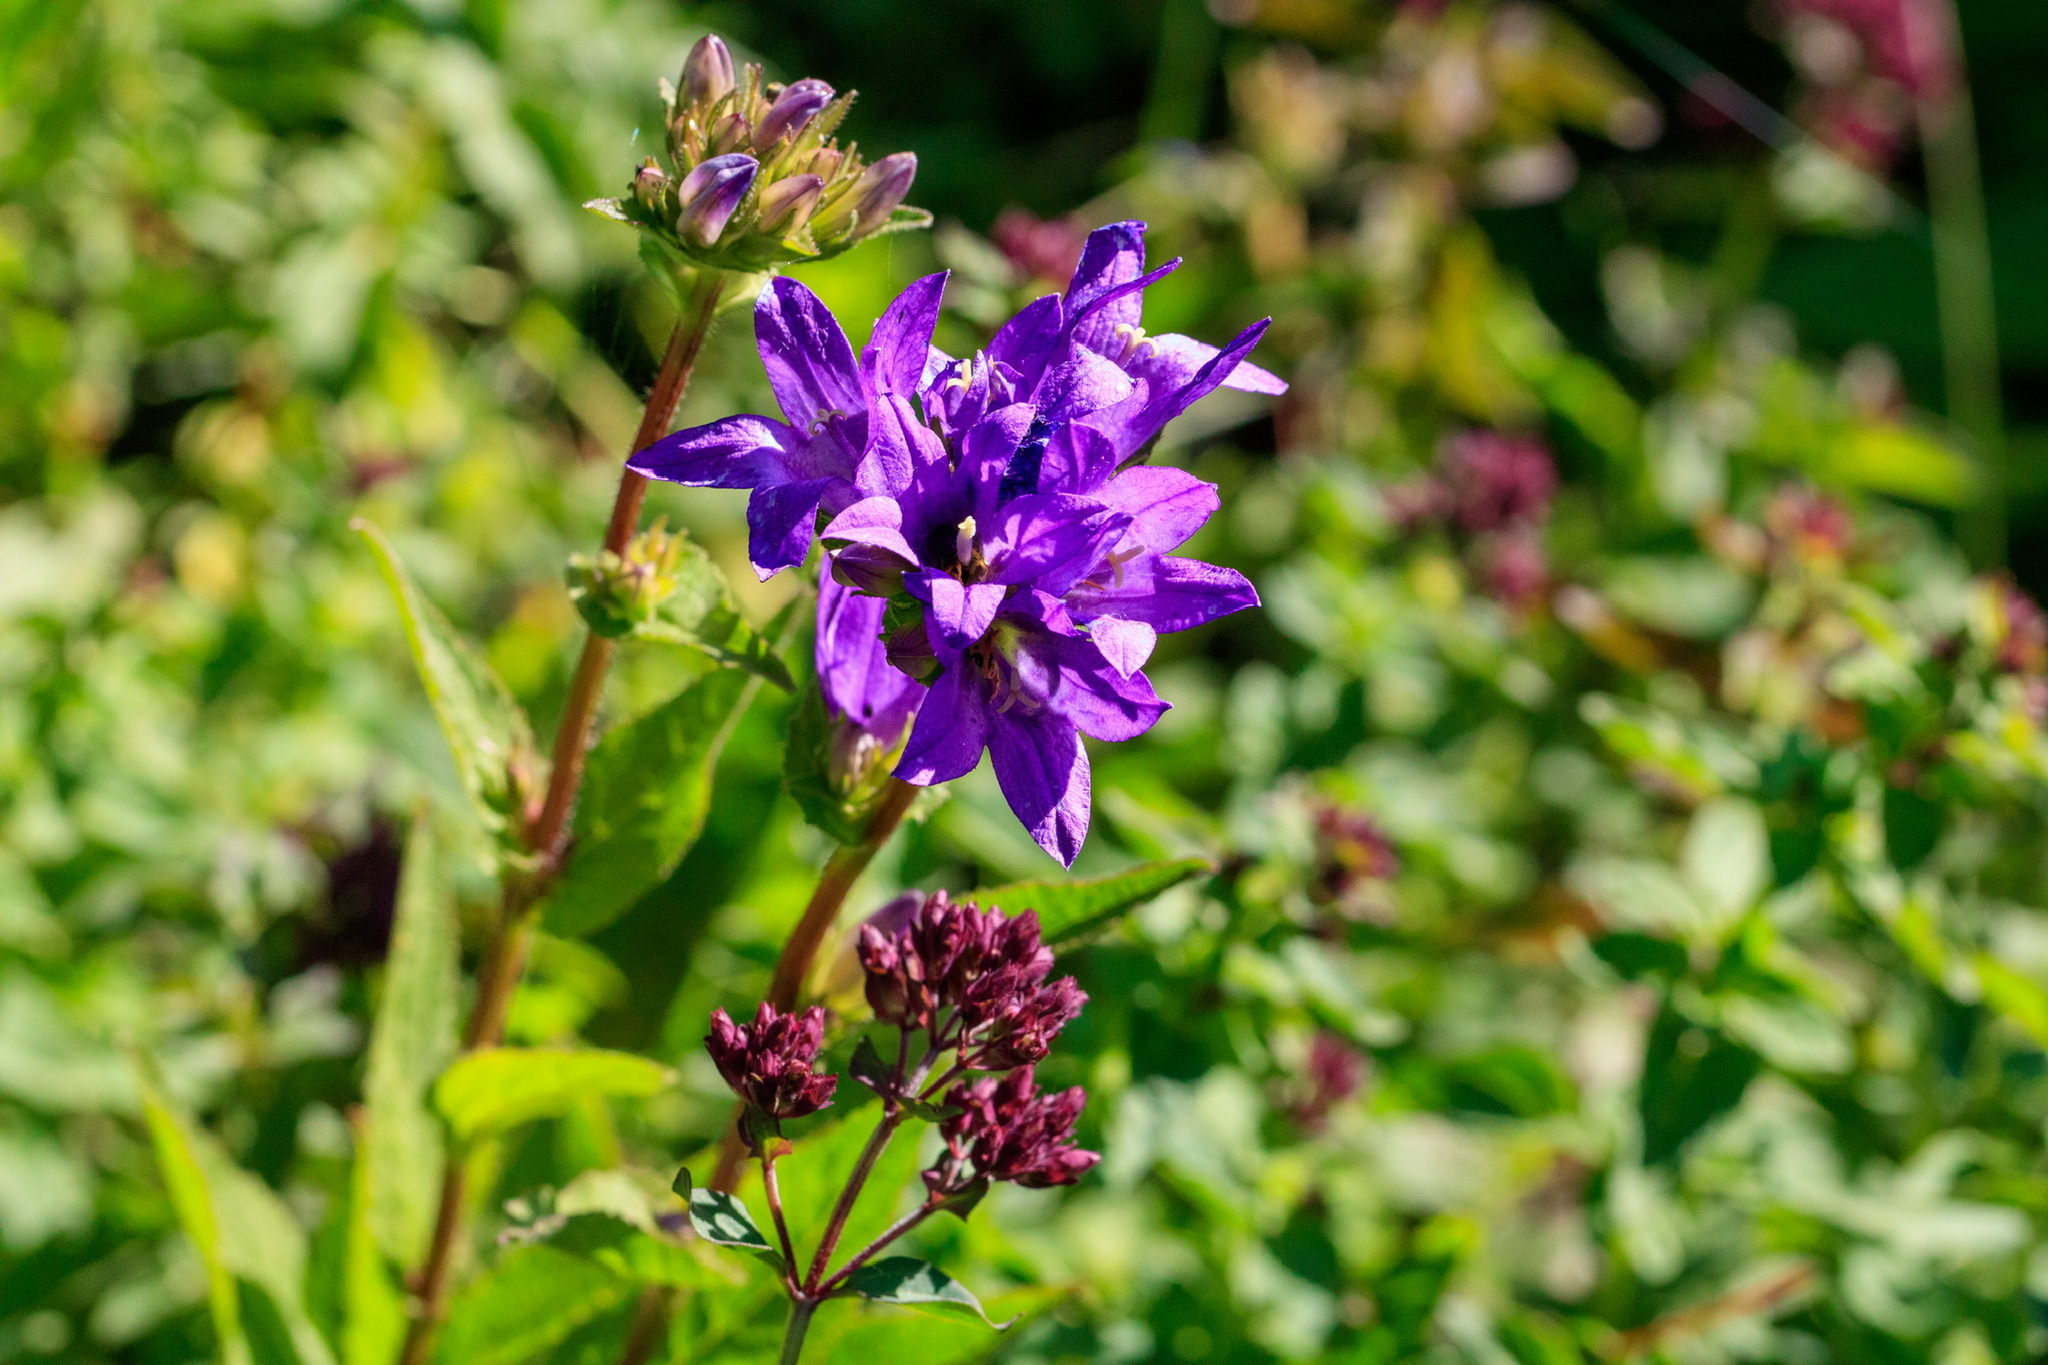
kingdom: Plantae
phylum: Tracheophyta
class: Magnoliopsida
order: Asterales
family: Campanulaceae
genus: Campanula
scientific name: Campanula glomerata
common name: Clustered bellflower
